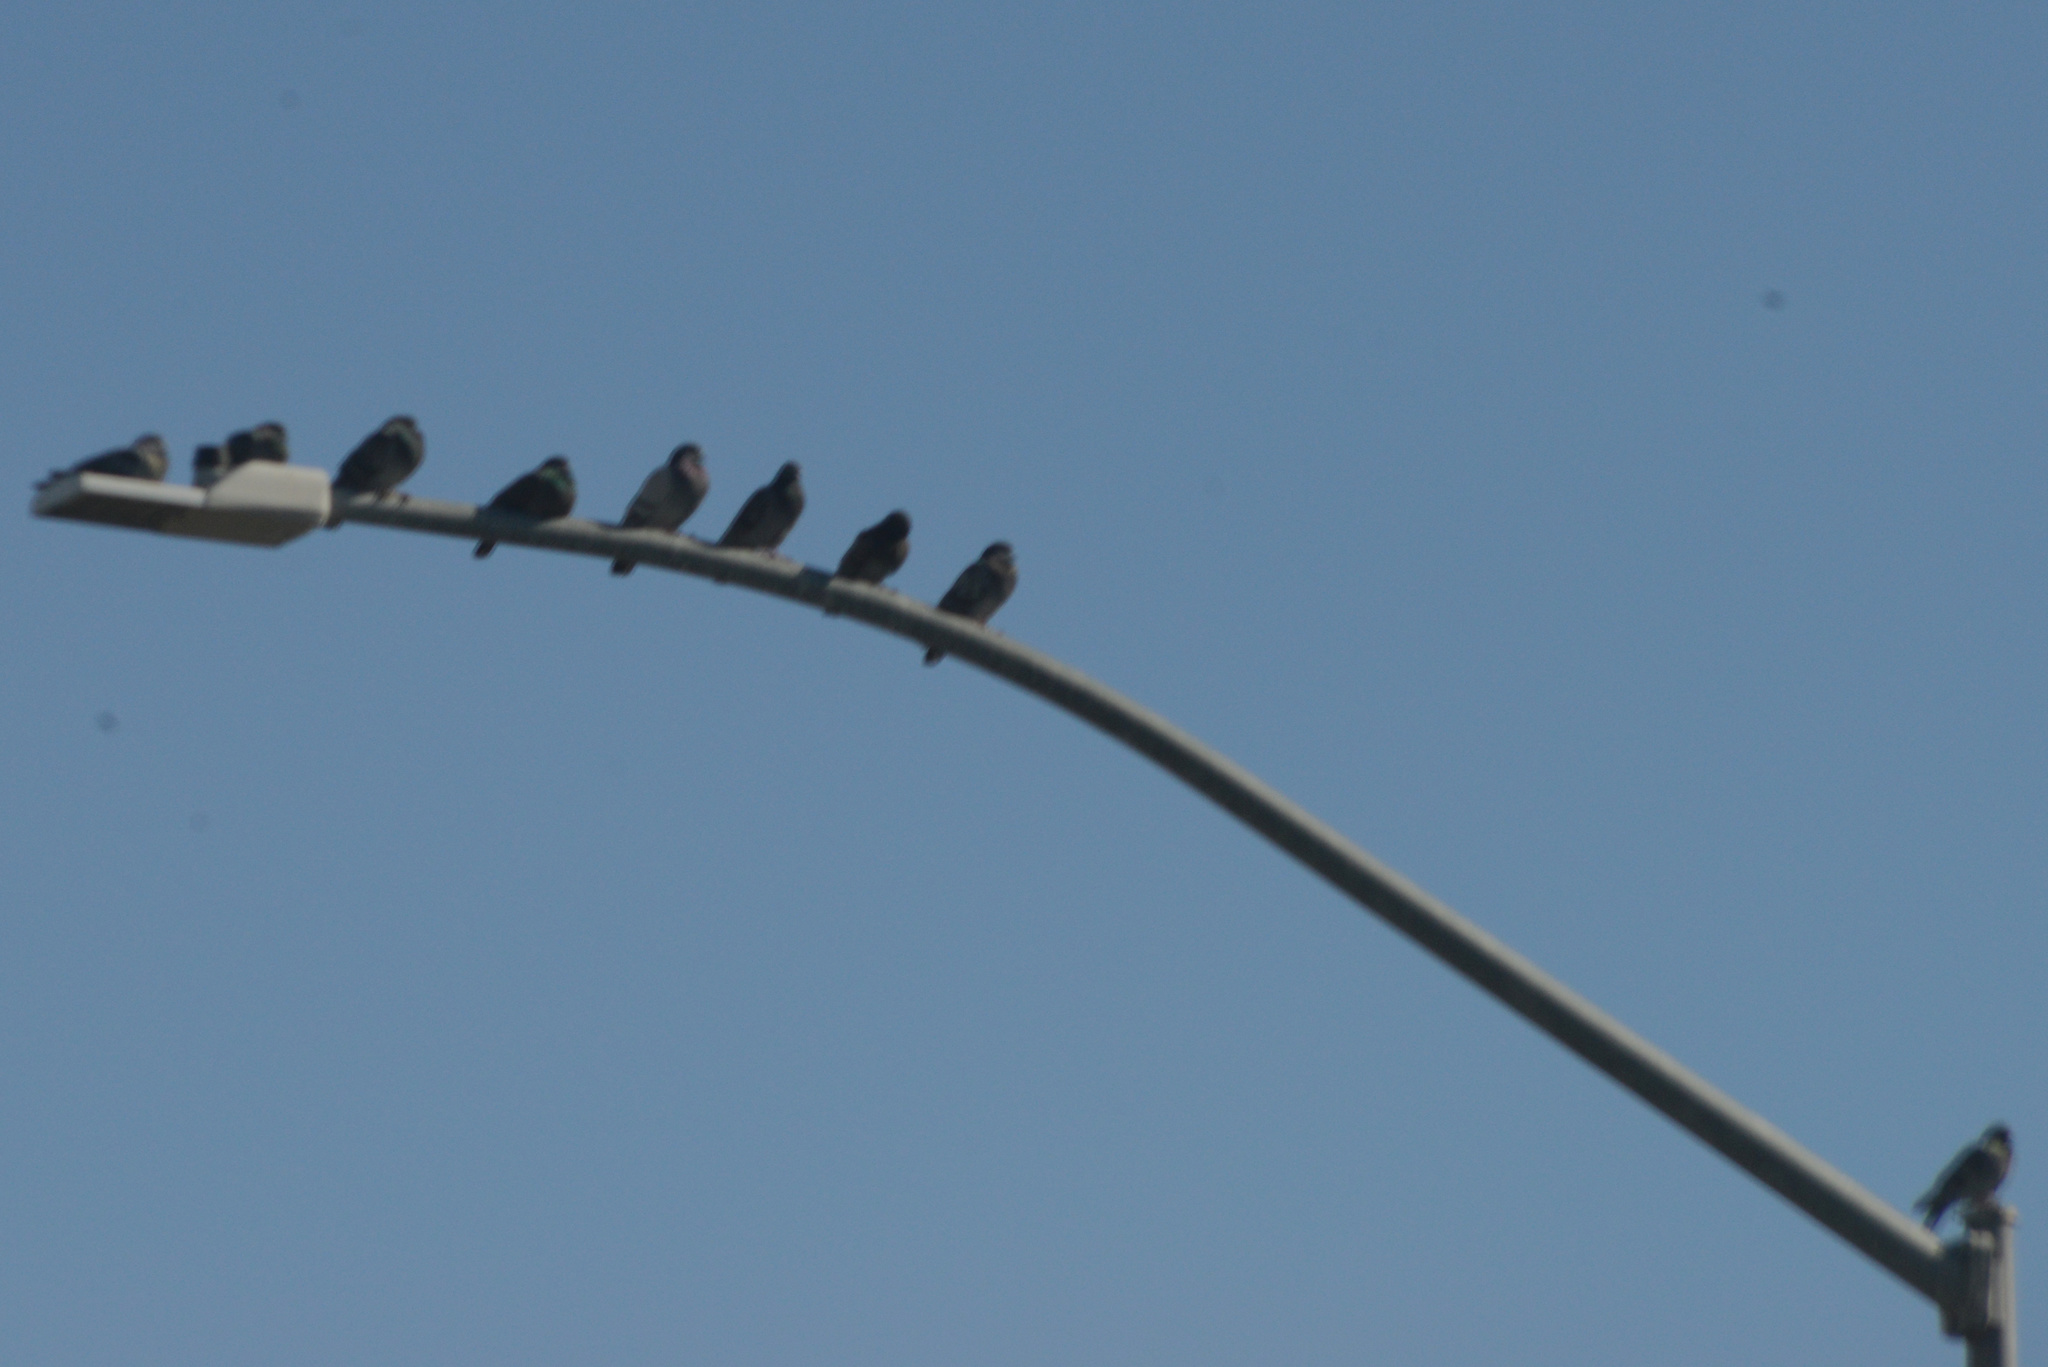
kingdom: Animalia
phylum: Chordata
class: Aves
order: Columbiformes
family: Columbidae
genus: Columba
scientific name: Columba livia
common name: Rock pigeon
